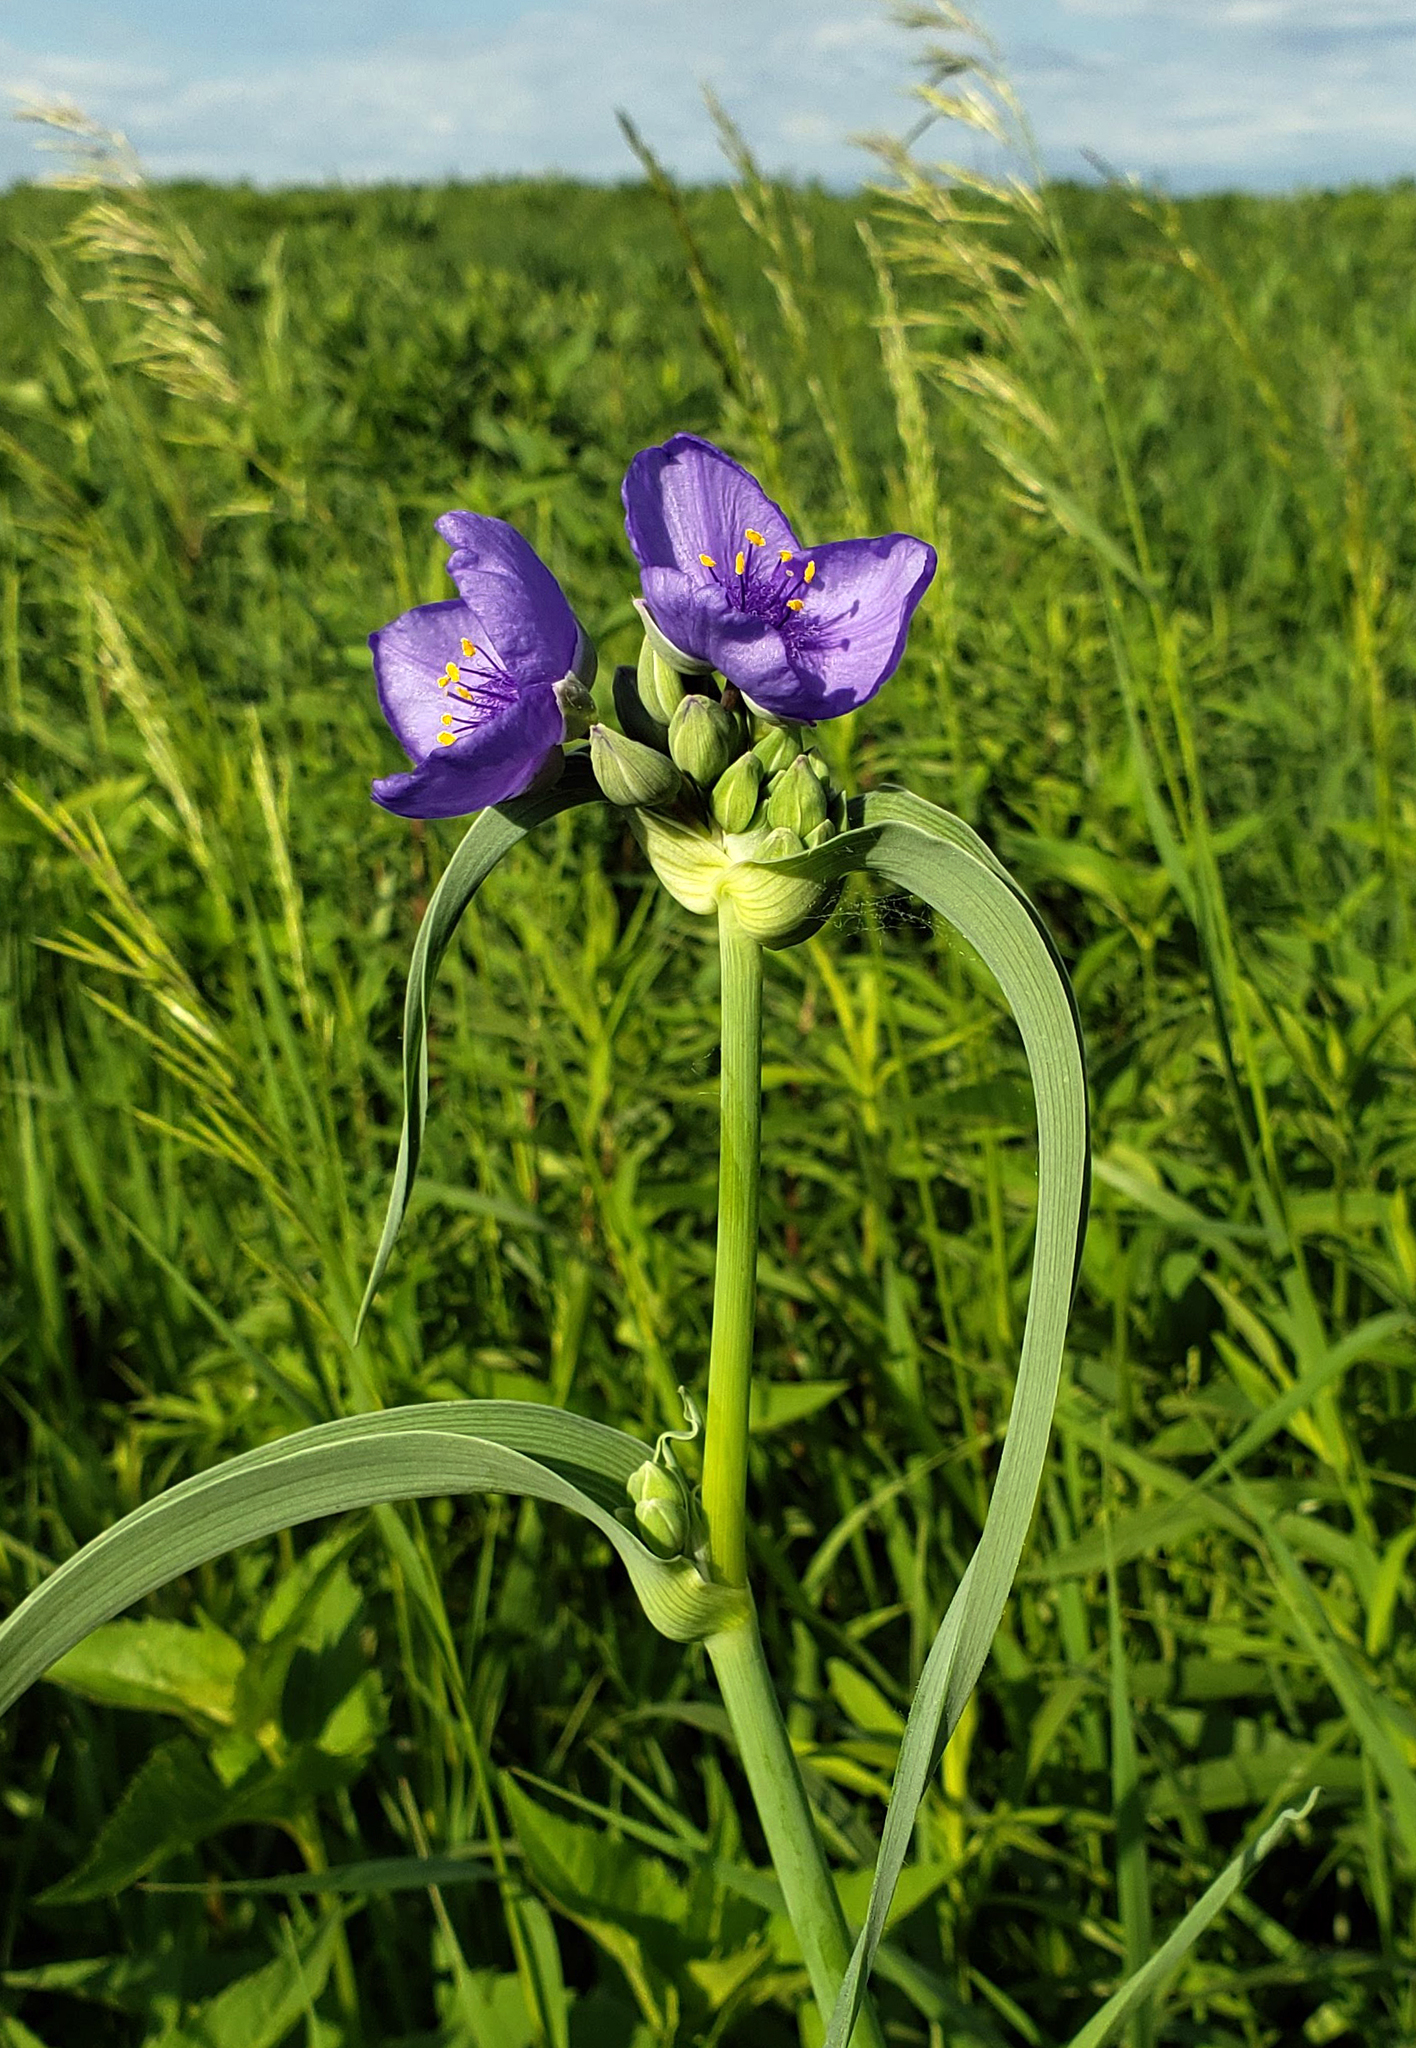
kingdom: Plantae
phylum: Tracheophyta
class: Liliopsida
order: Commelinales
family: Commelinaceae
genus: Tradescantia
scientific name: Tradescantia ohiensis
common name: Ohio spiderwort
